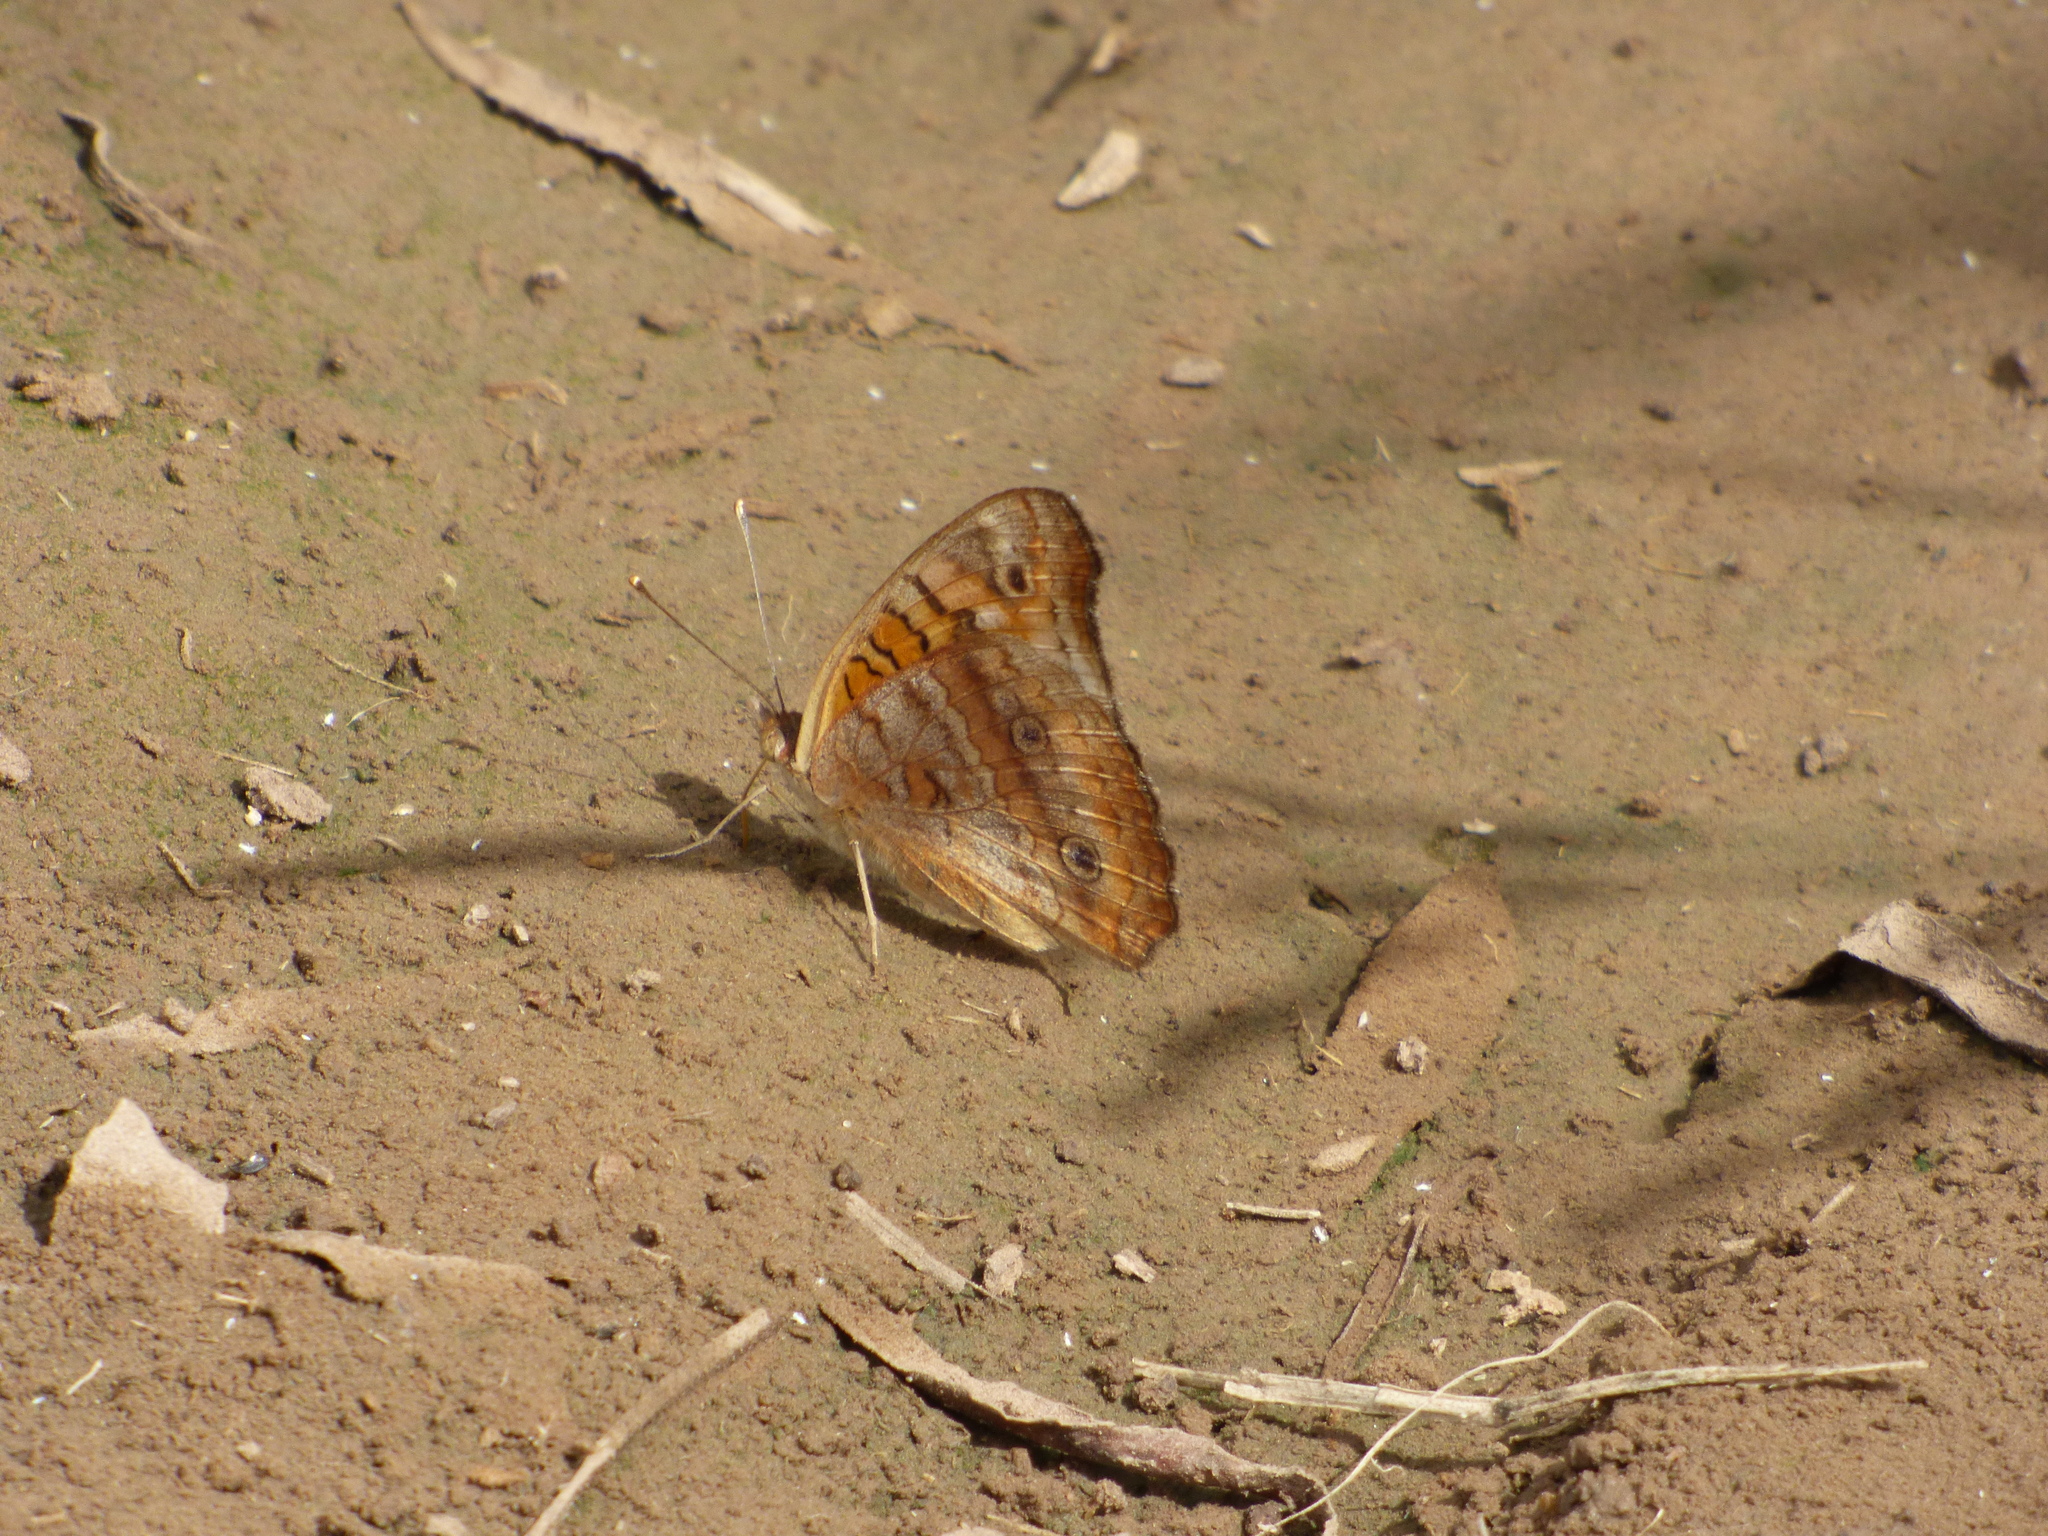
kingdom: Animalia
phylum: Arthropoda
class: Insecta
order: Lepidoptera
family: Nymphalidae
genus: Junonia
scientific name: Junonia lavinia
